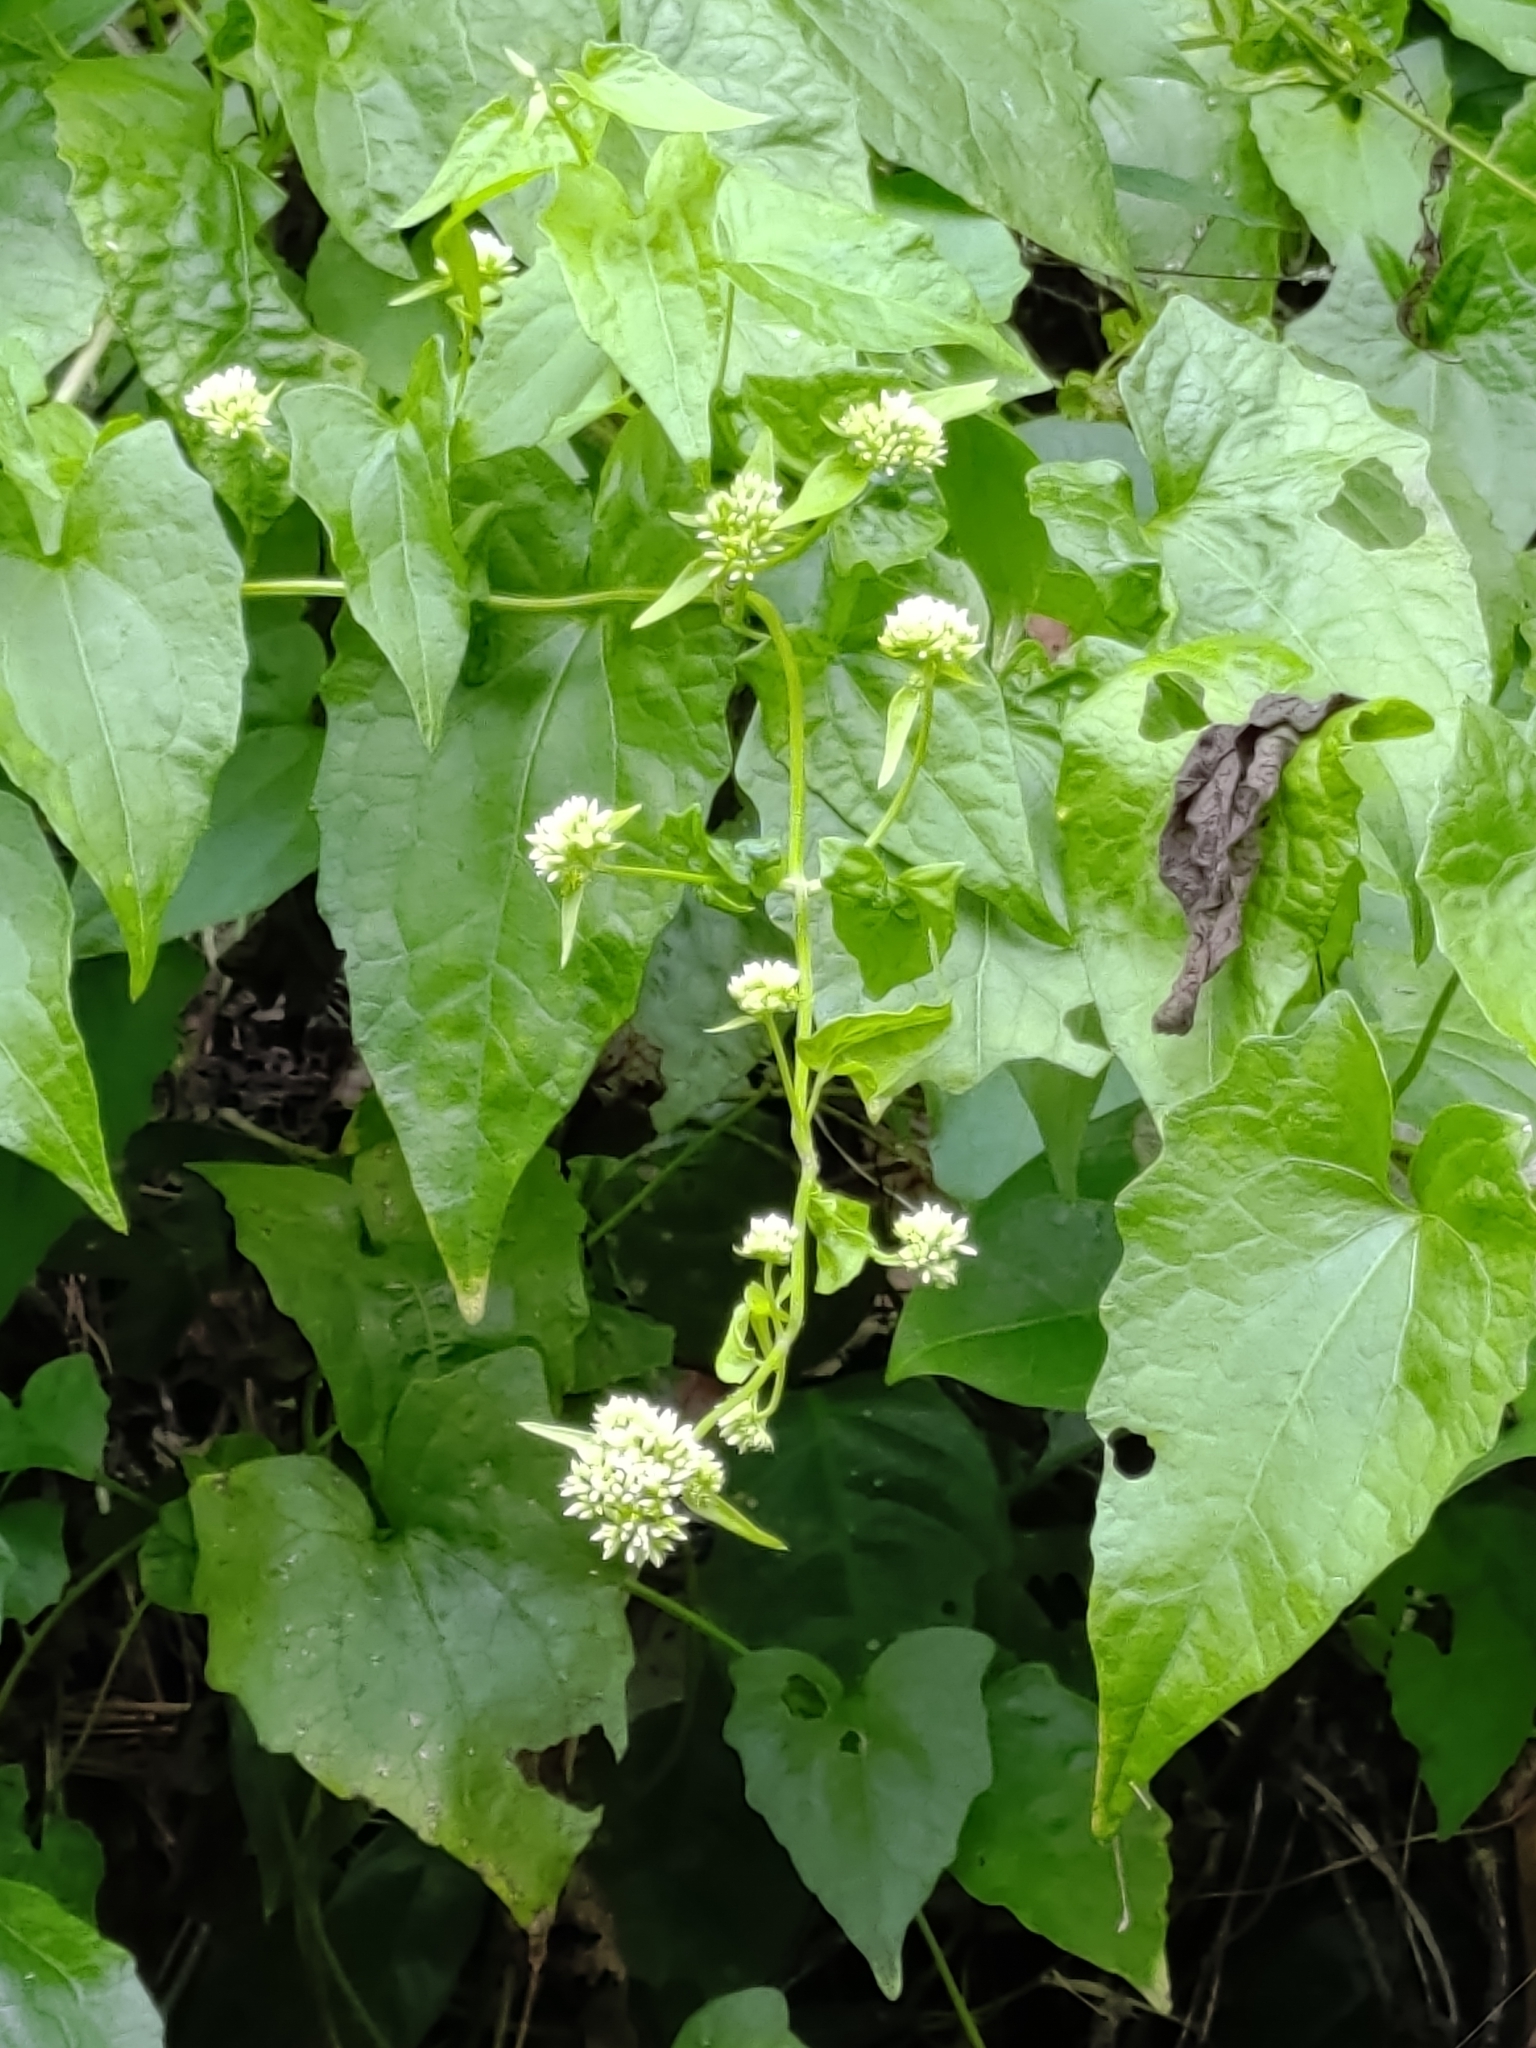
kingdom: Plantae
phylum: Tracheophyta
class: Magnoliopsida
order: Asterales
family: Asteraceae
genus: Mikania
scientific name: Mikania micrantha
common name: Mile-a-minute
